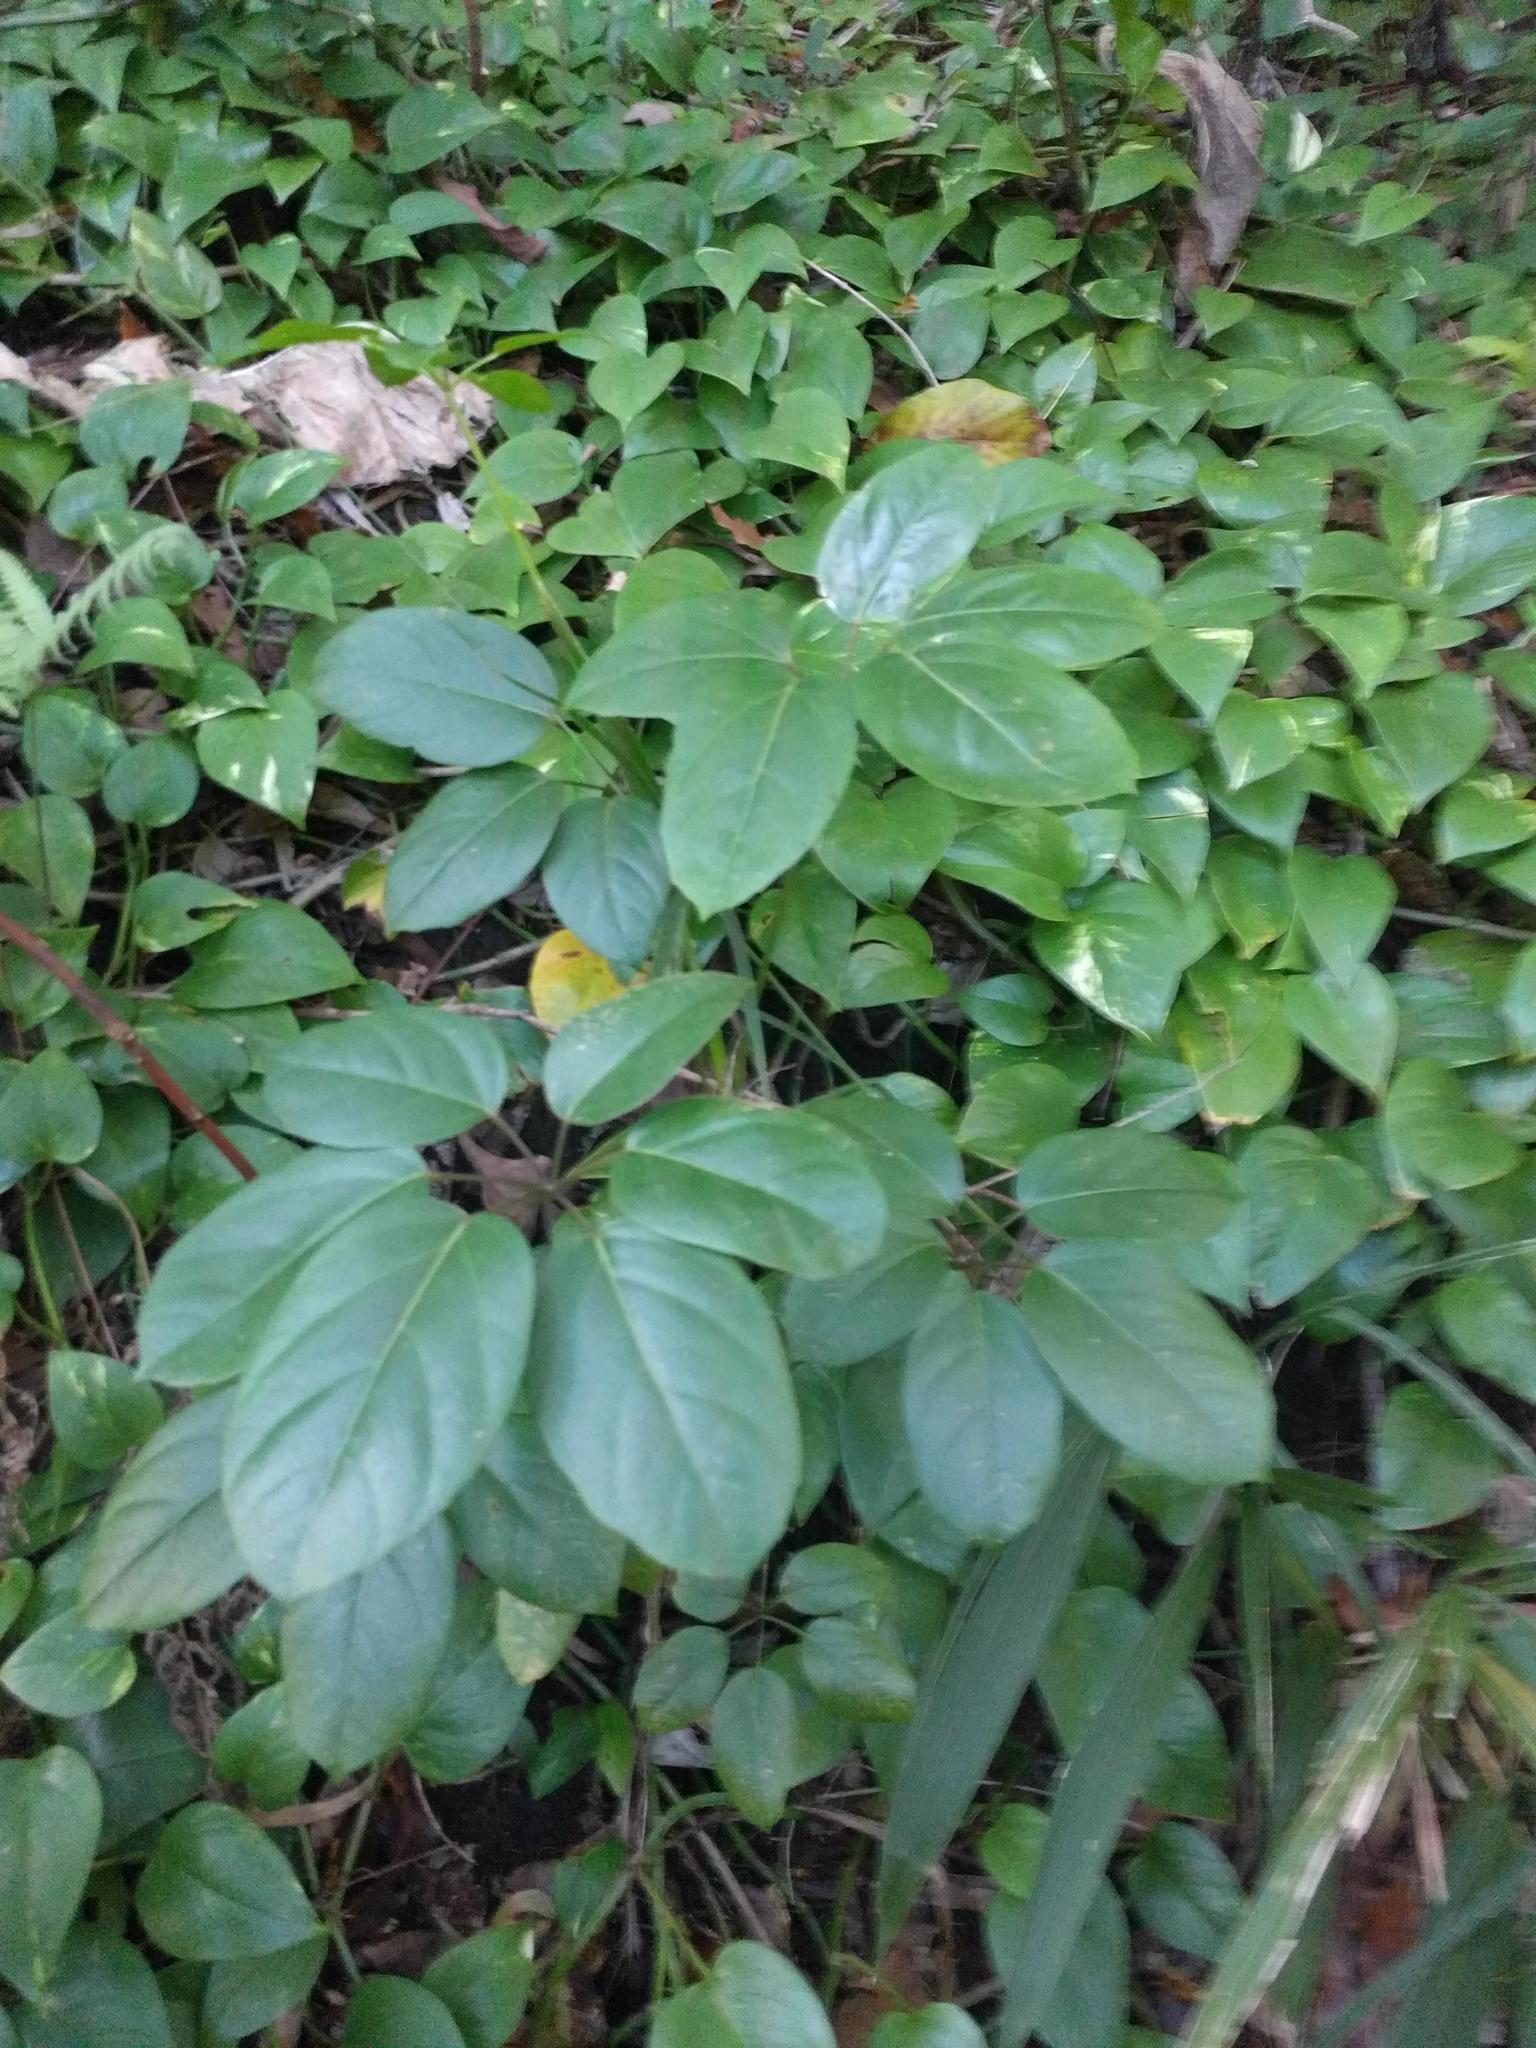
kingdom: Plantae
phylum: Tracheophyta
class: Magnoliopsida
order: Apiales
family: Araliaceae
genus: Heptapleurum
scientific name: Heptapleurum actinophyllum
